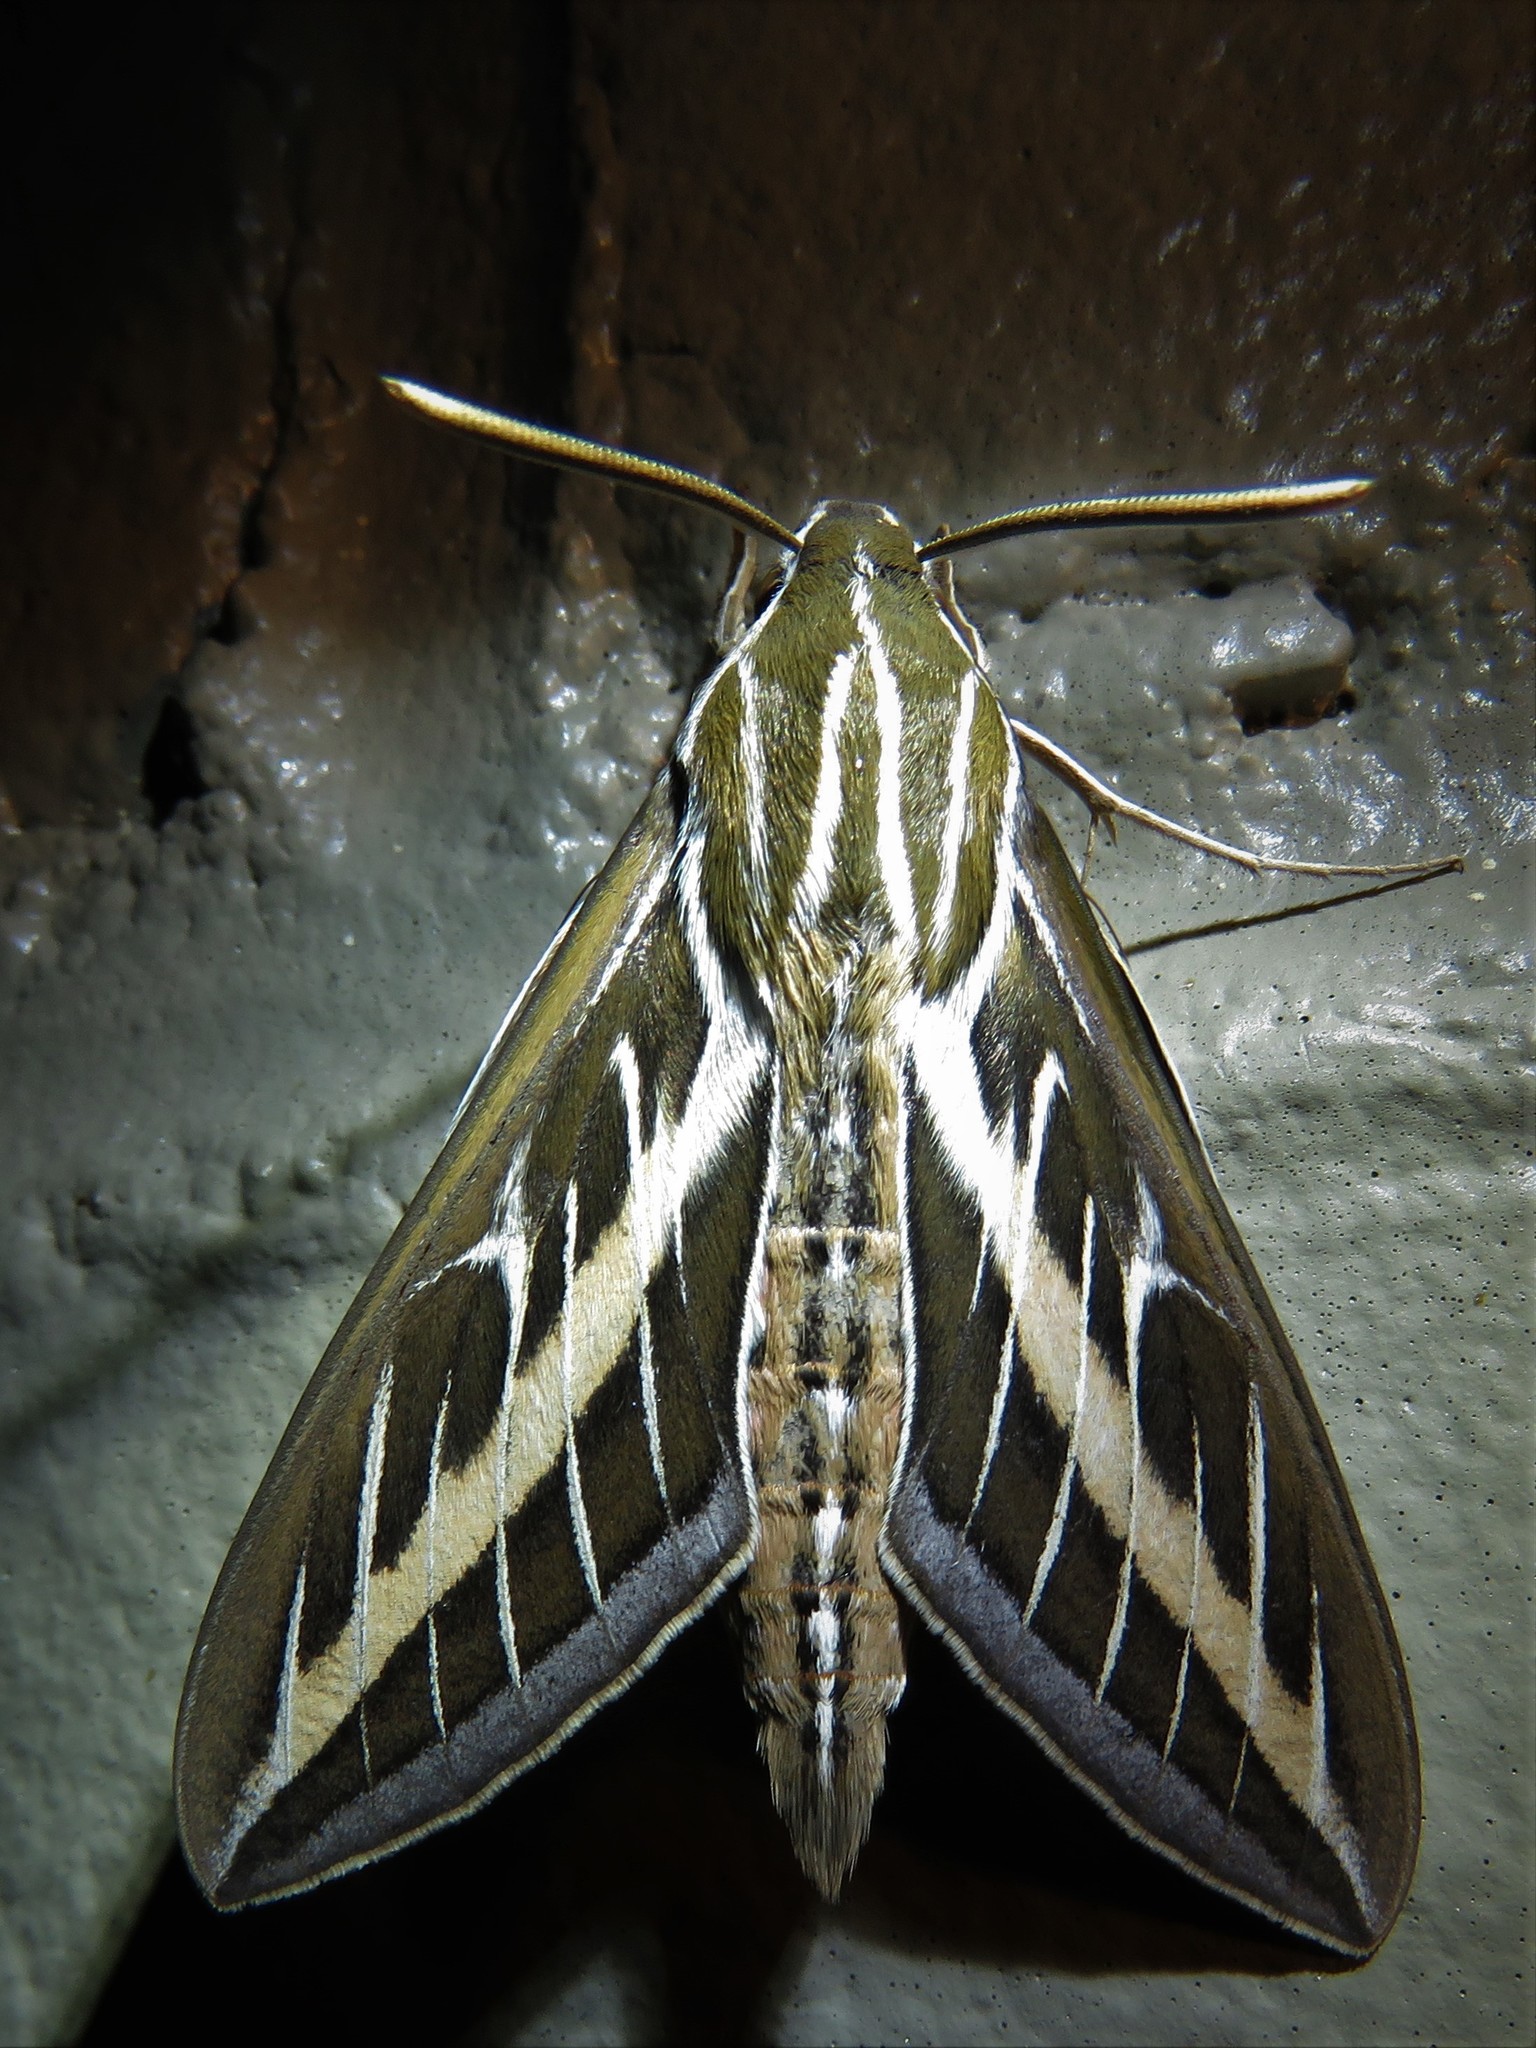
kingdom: Animalia
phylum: Arthropoda
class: Insecta
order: Lepidoptera
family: Sphingidae
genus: Hyles
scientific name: Hyles lineata
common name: White-lined sphinx
